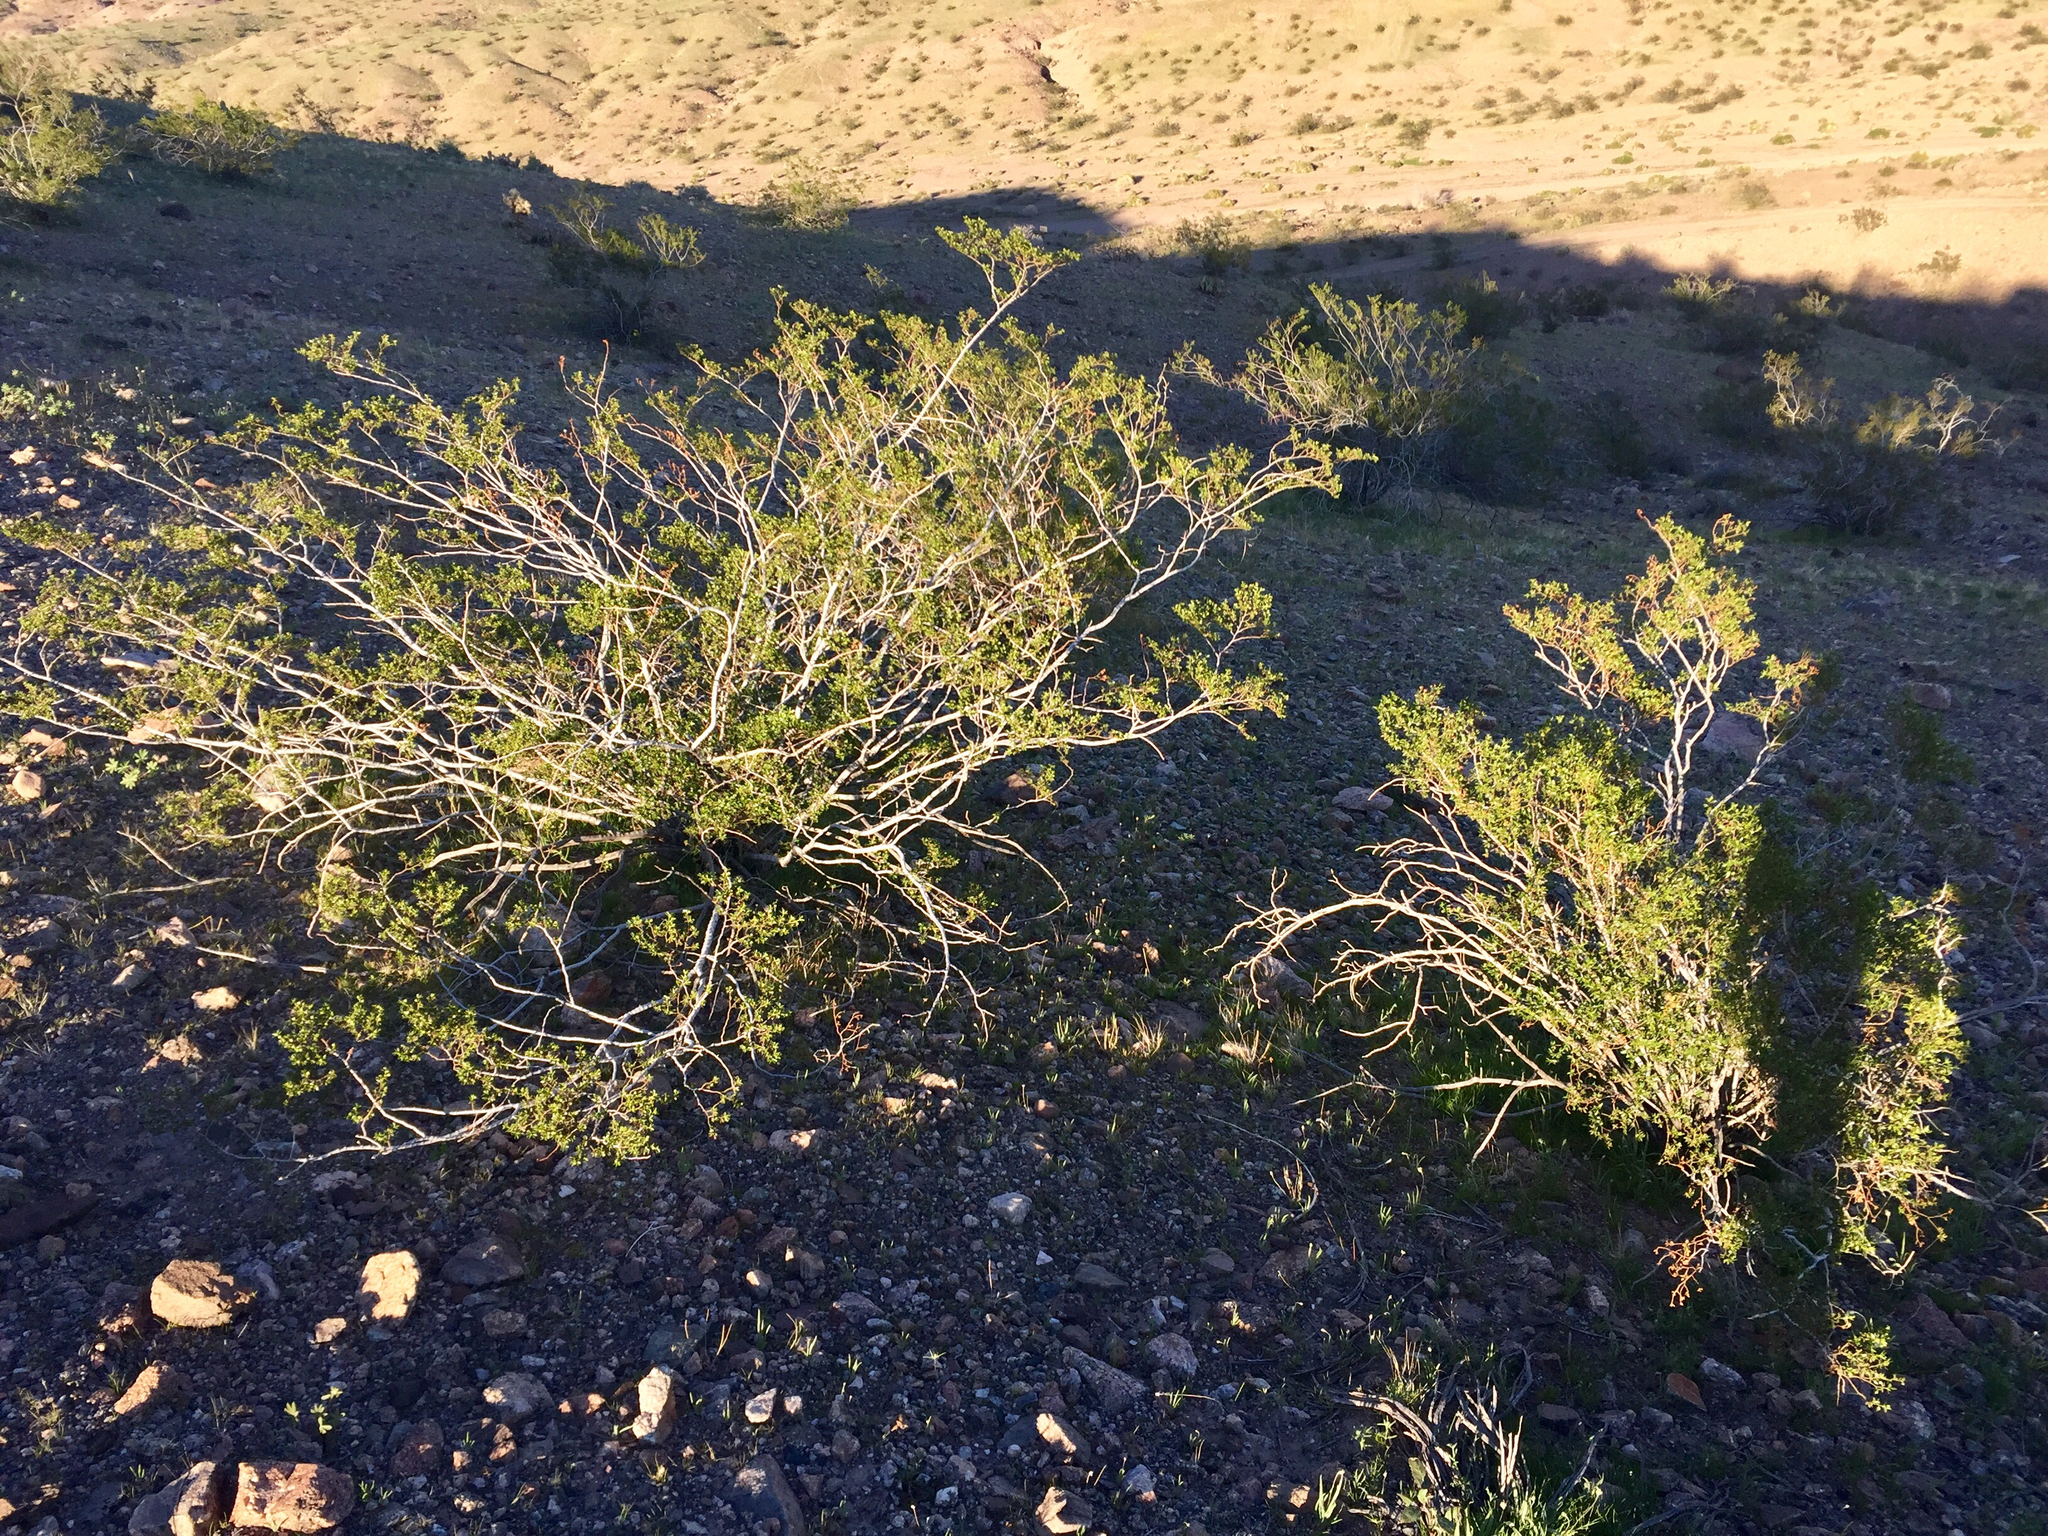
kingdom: Plantae
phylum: Tracheophyta
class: Magnoliopsida
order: Zygophyllales
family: Zygophyllaceae
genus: Larrea
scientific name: Larrea tridentata
